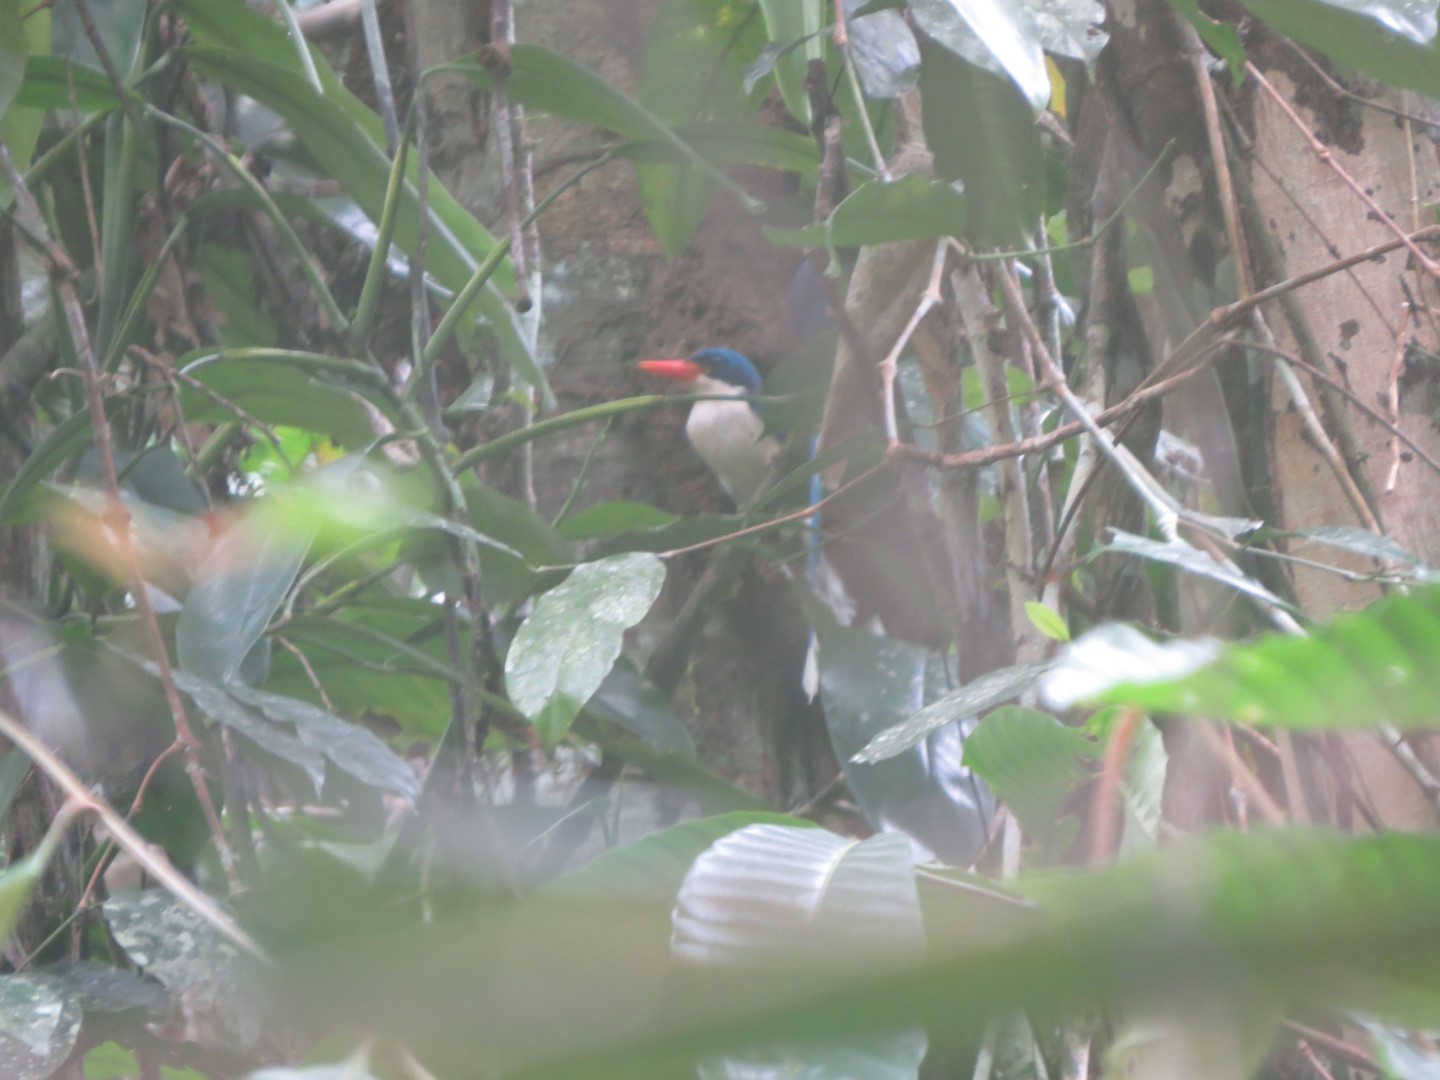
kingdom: Animalia
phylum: Chordata
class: Aves
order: Coraciiformes
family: Alcedinidae
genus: Tanysiptera
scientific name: Tanysiptera galatea
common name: Common paradise-kingfisher
